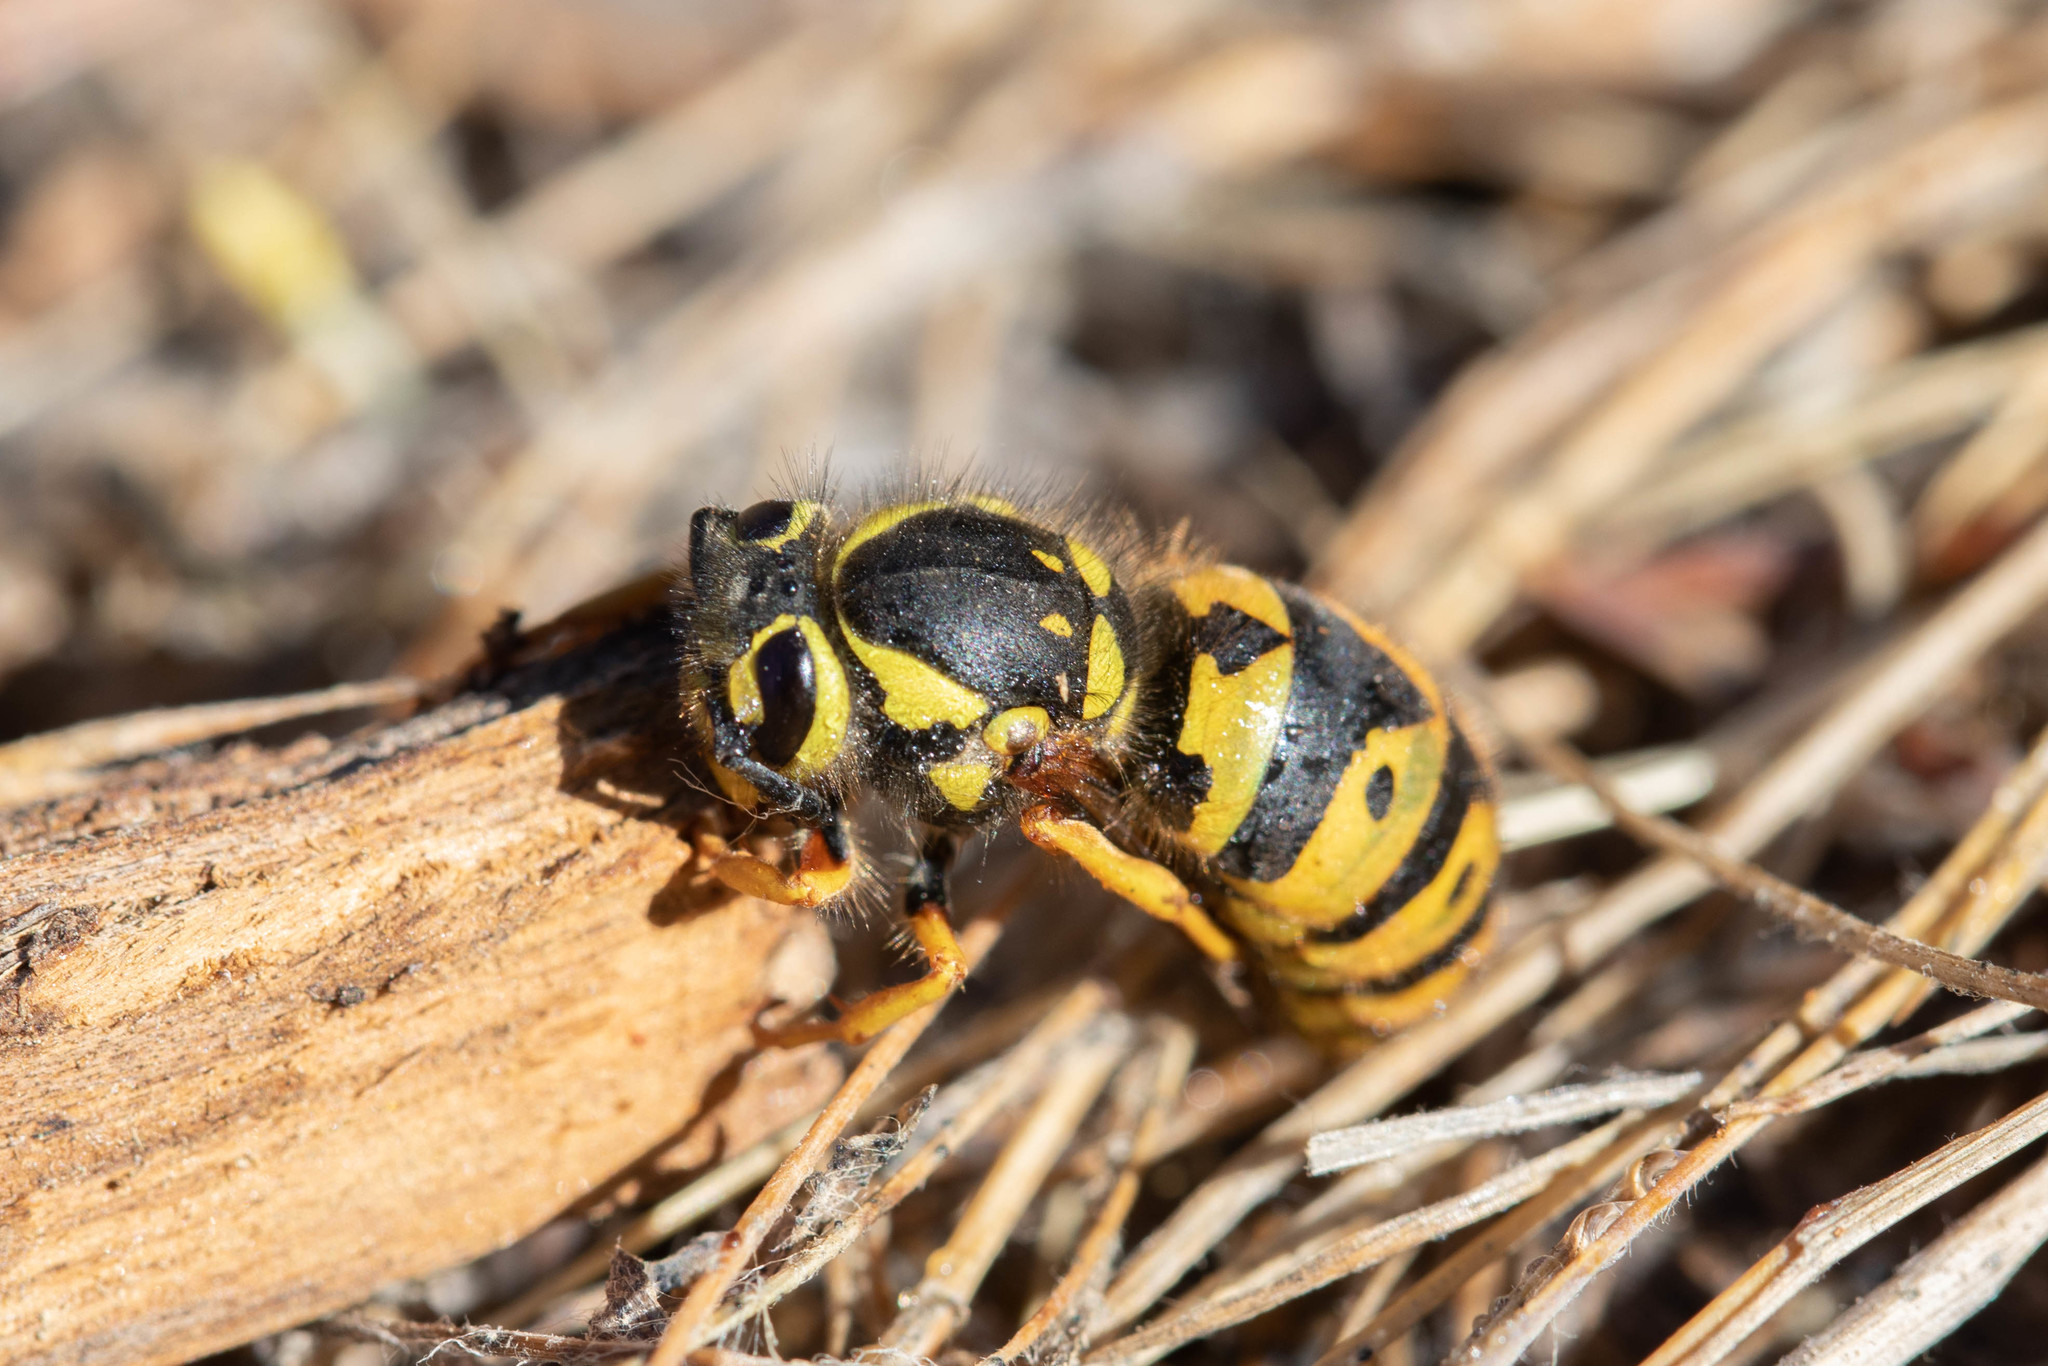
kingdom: Animalia
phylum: Arthropoda
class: Insecta
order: Hymenoptera
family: Vespidae
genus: Vespula
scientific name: Vespula pensylvanica
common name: Western yellowjacket
